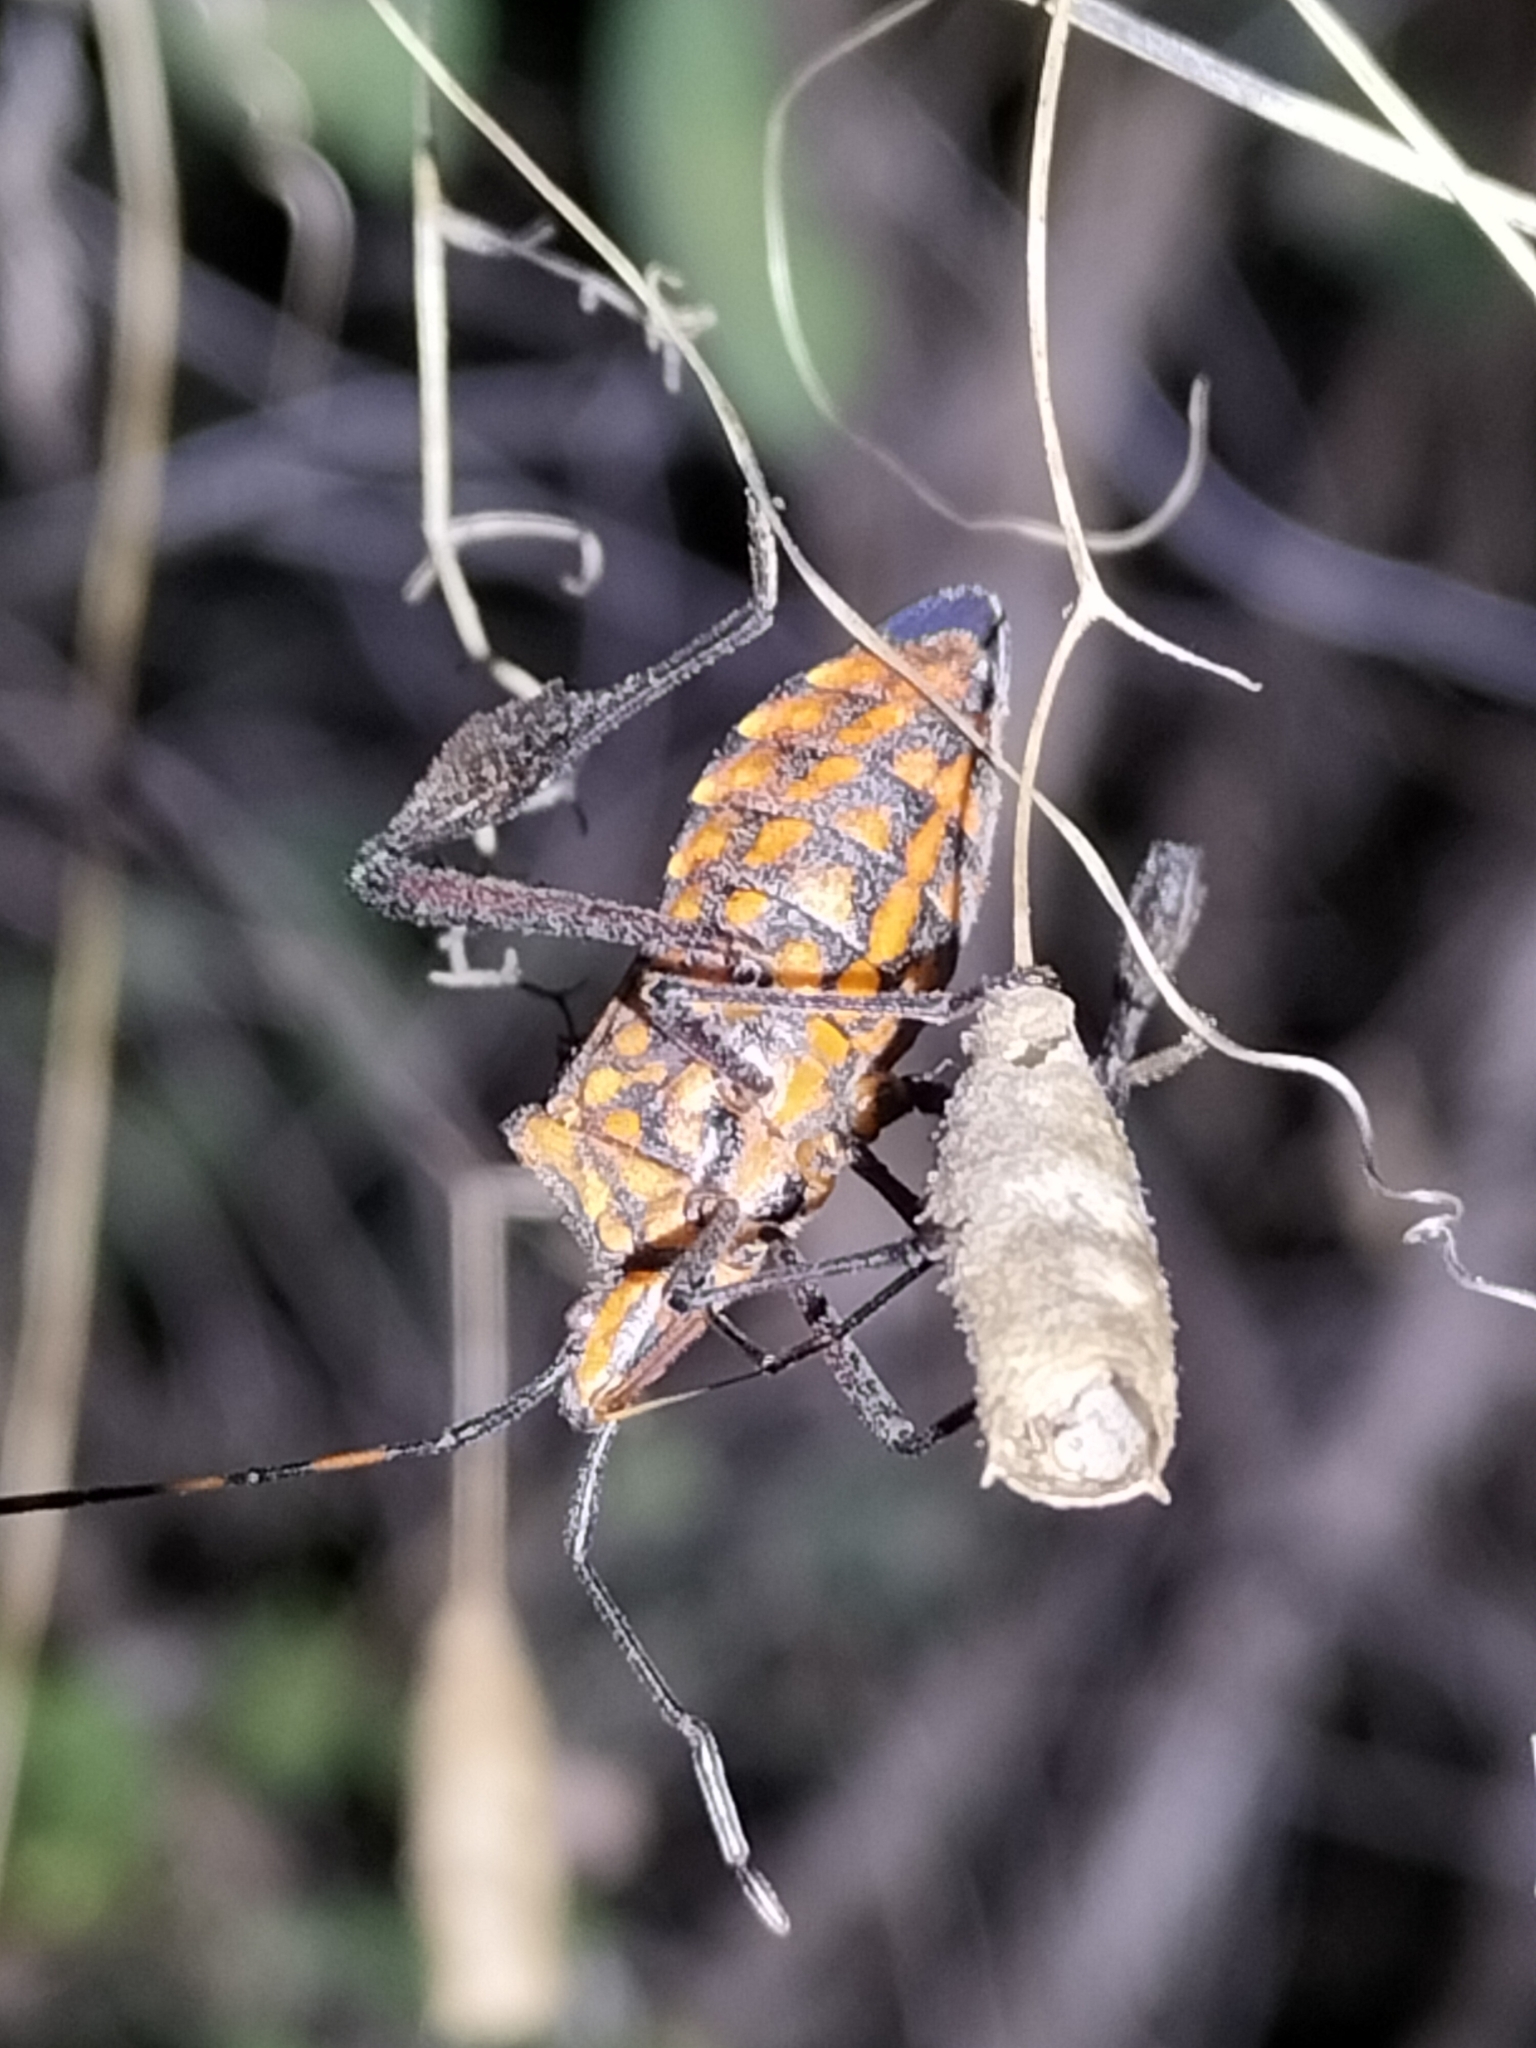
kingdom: Animalia
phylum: Arthropoda
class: Insecta
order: Hemiptera
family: Coreidae
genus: Leptoglossus
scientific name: Leptoglossus gonagra
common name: Citron bug
